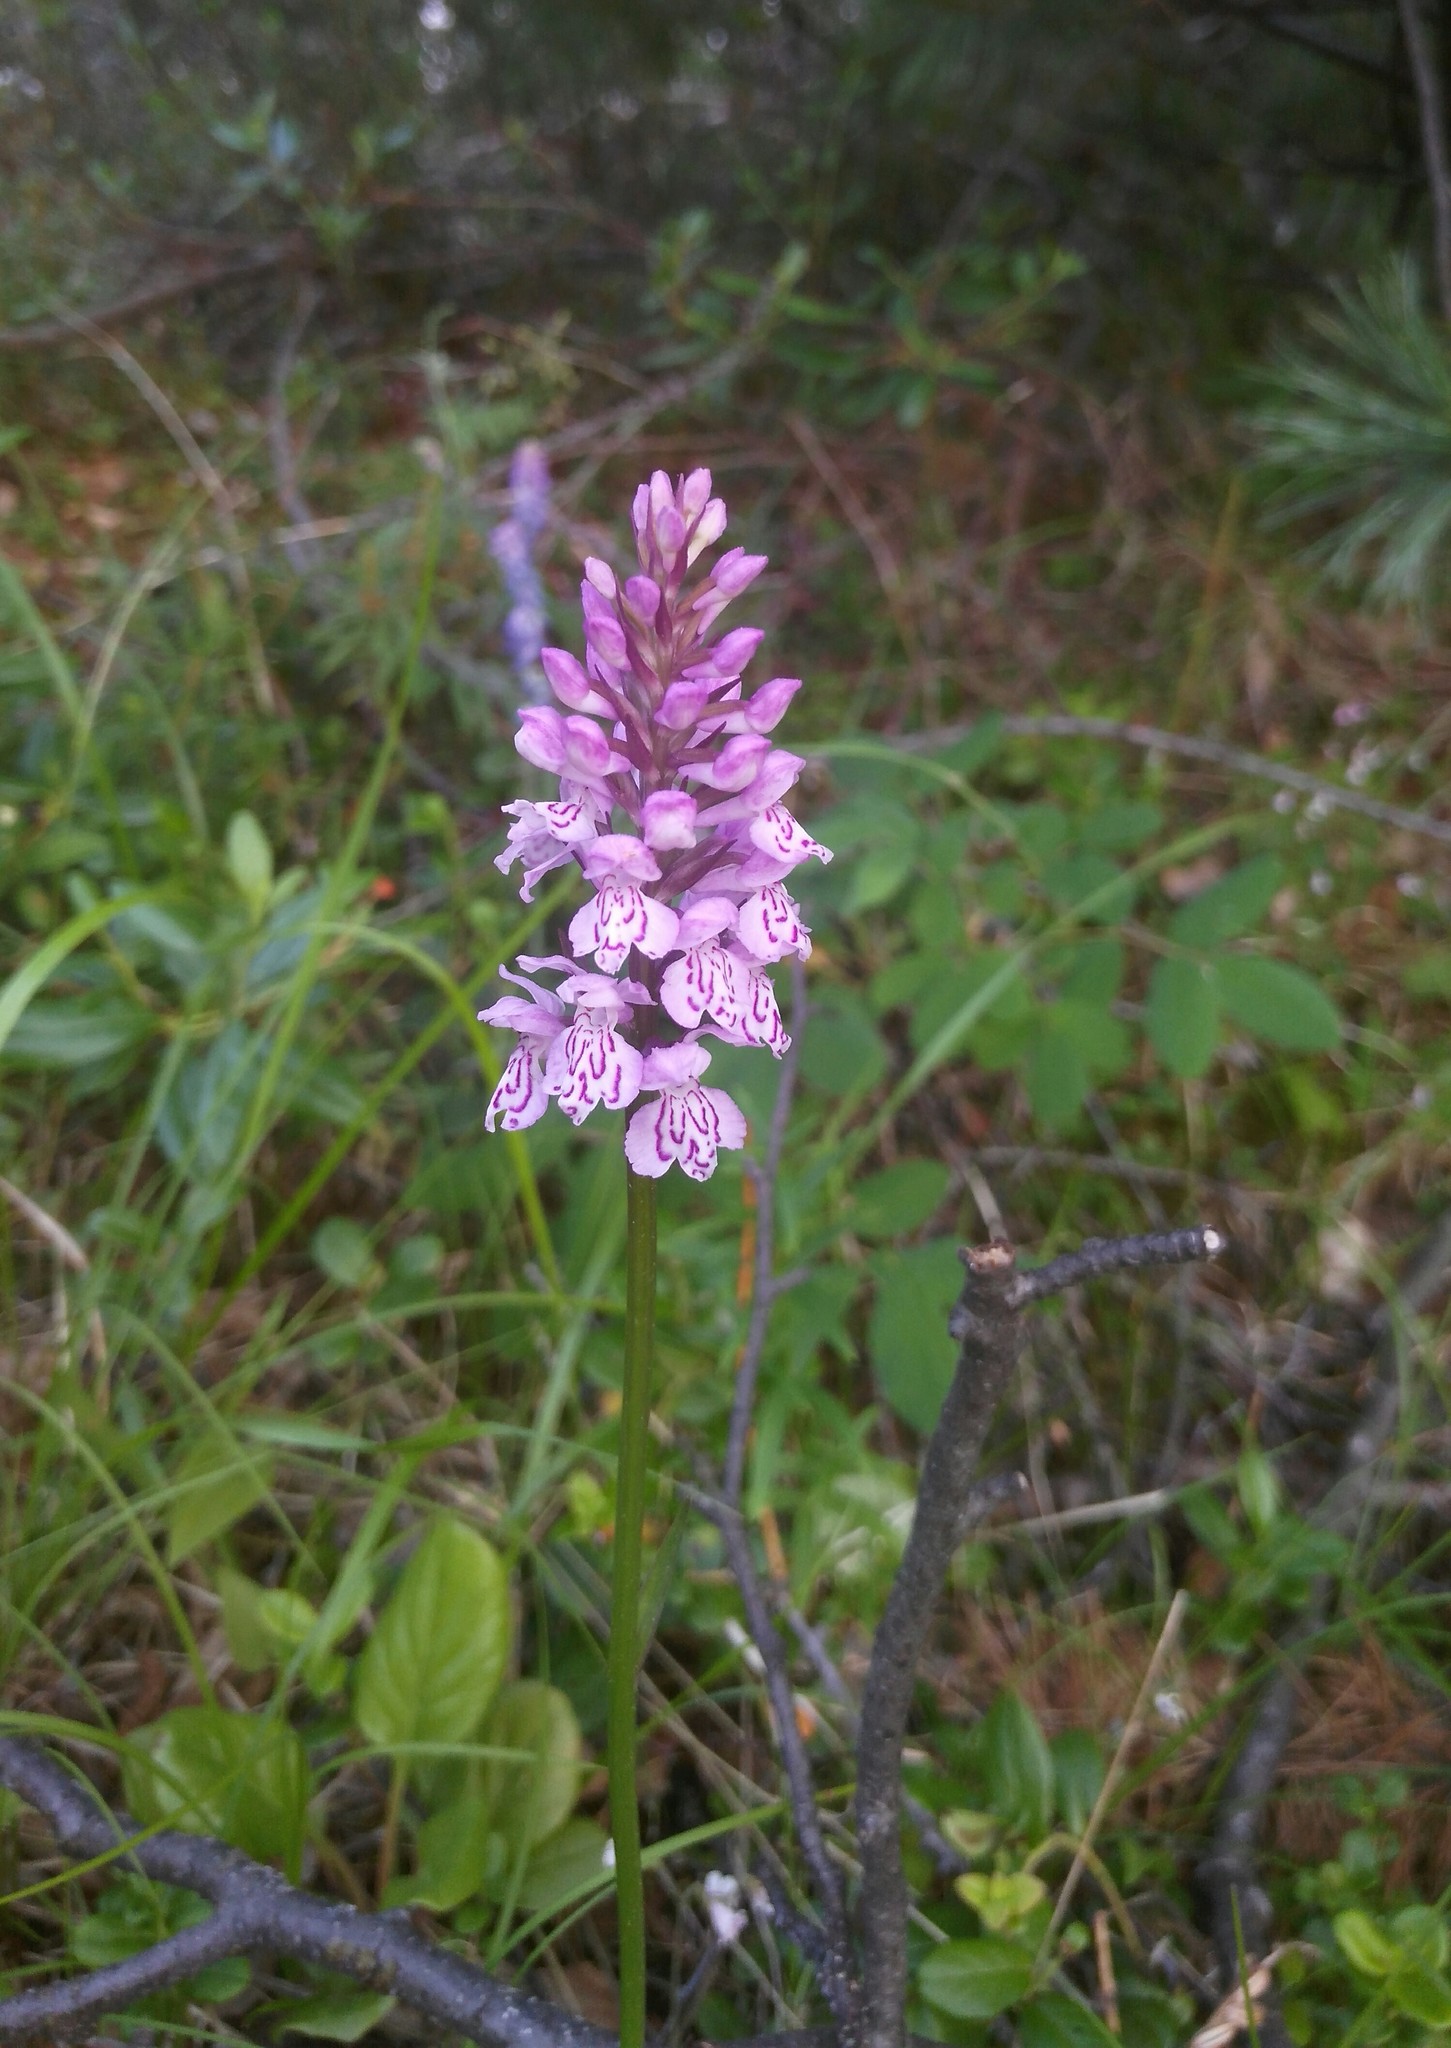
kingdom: Plantae
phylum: Tracheophyta
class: Liliopsida
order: Asparagales
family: Orchidaceae
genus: Dactylorhiza
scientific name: Dactylorhiza maculata
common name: Heath spotted-orchid
